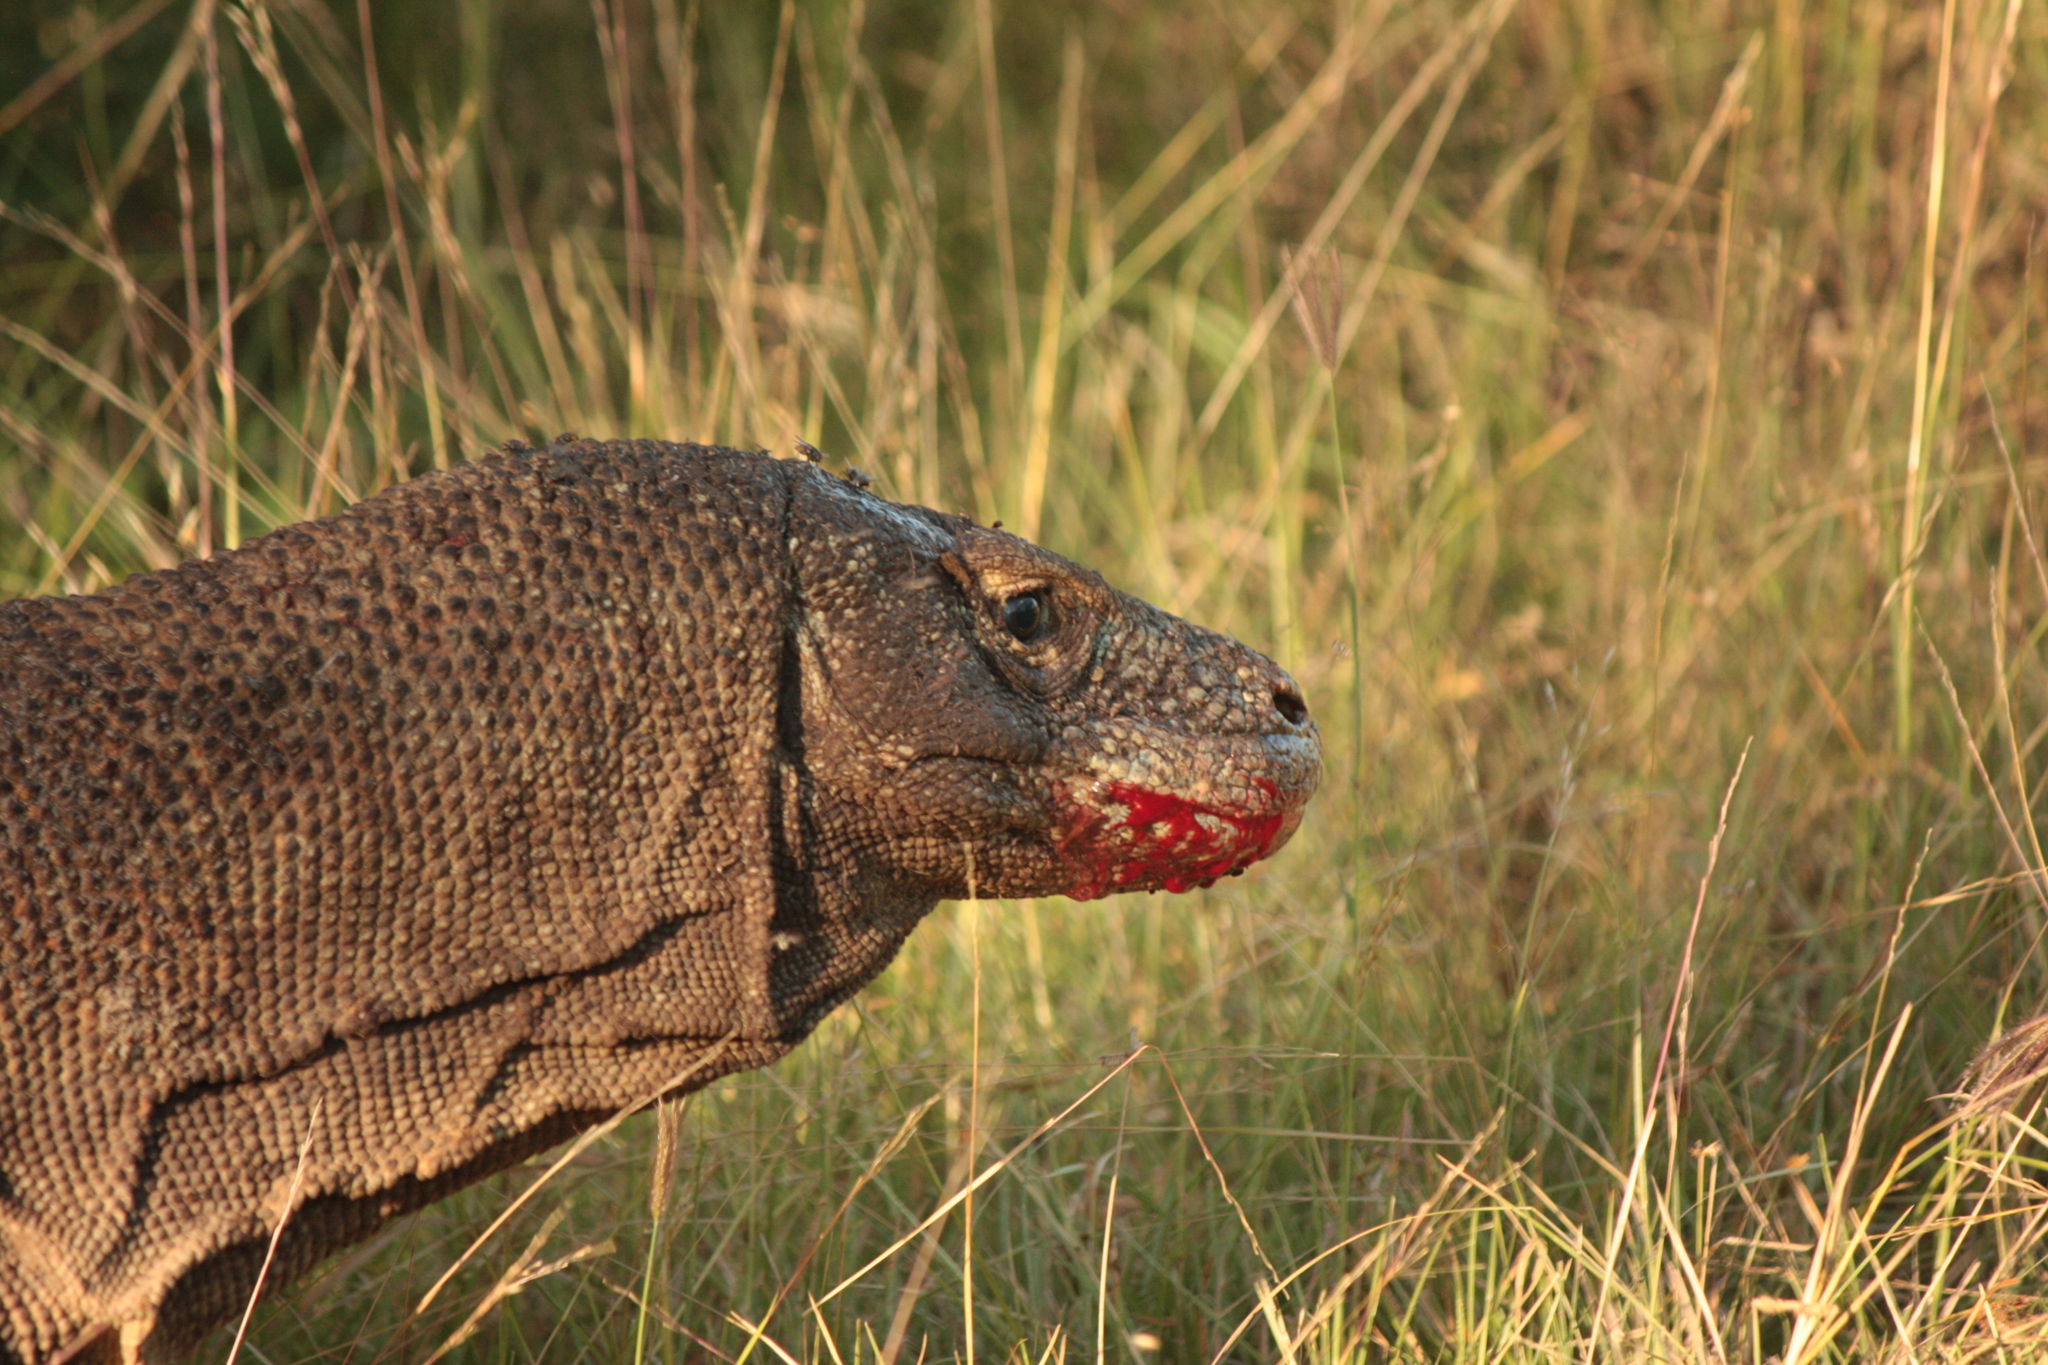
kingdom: Animalia
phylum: Chordata
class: Squamata
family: Varanidae
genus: Varanus
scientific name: Varanus komodoensis
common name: Komodo dragon
